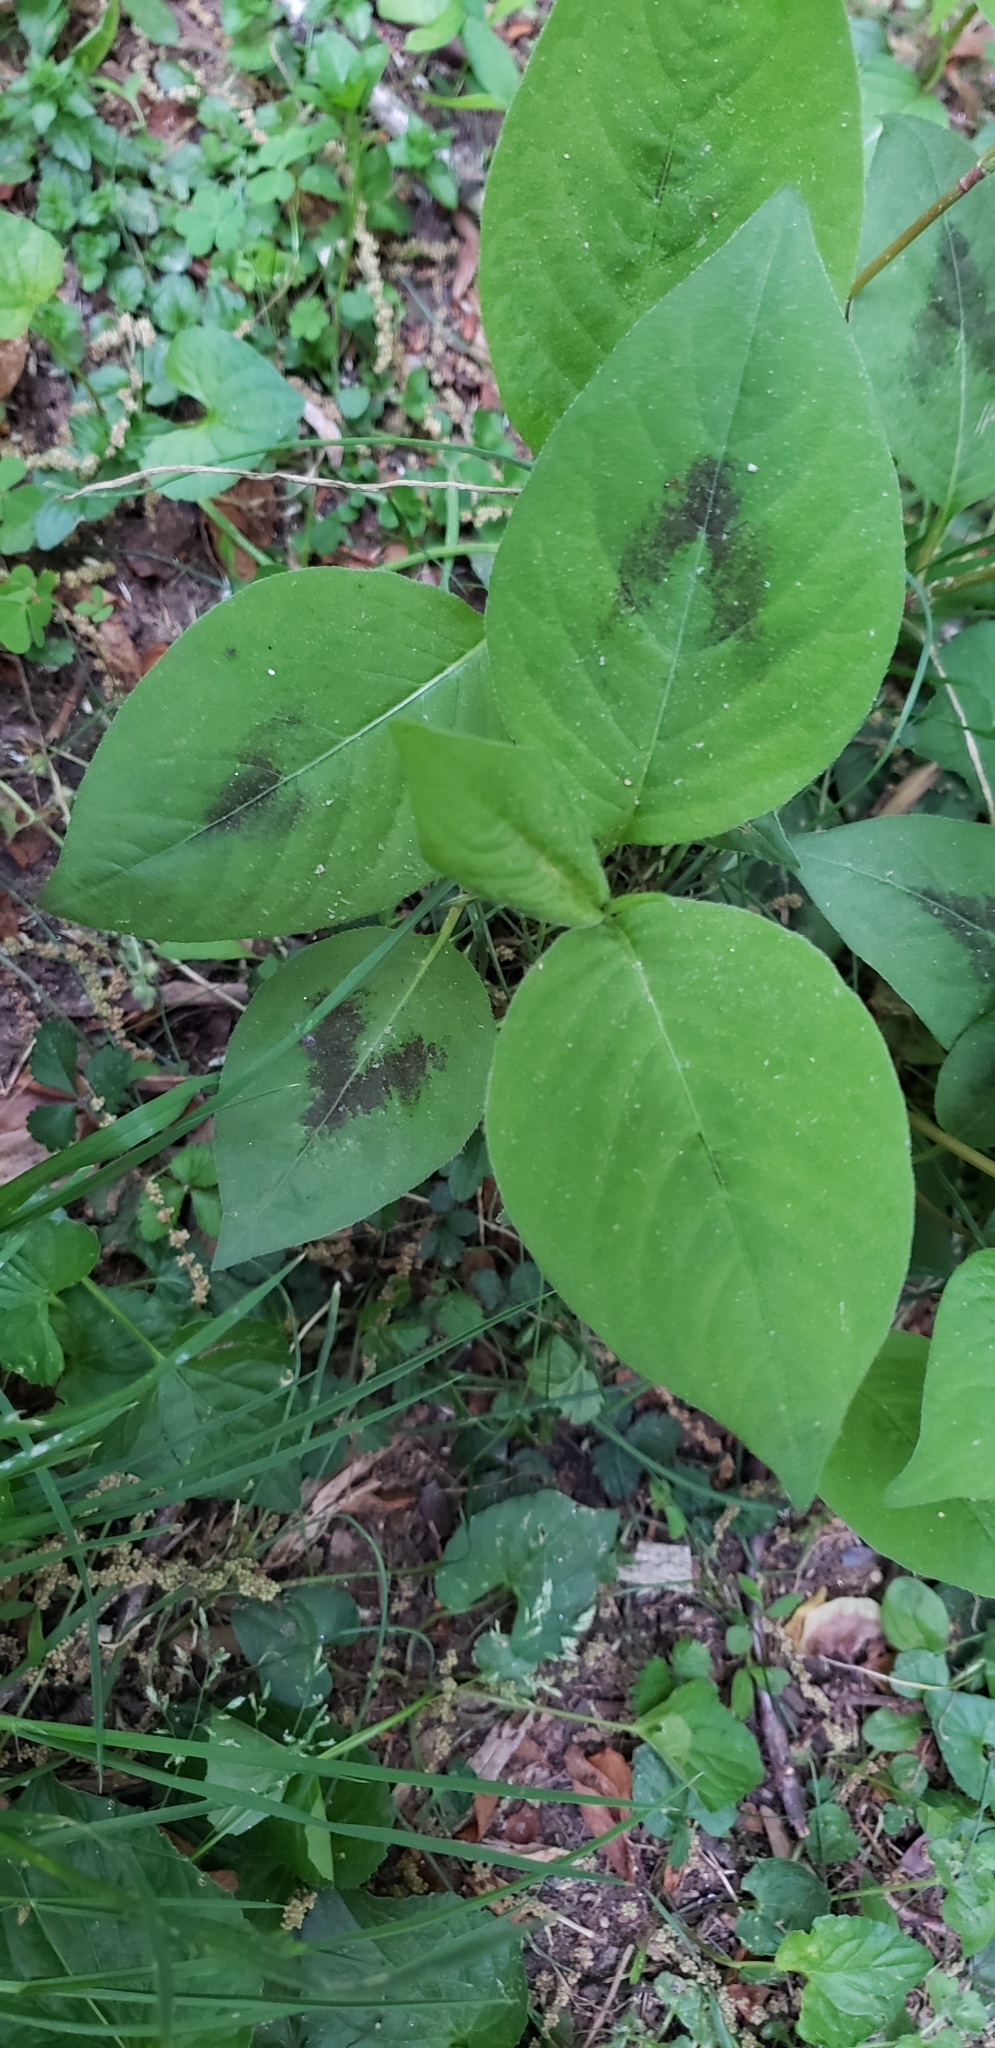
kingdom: Plantae
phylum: Tracheophyta
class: Magnoliopsida
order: Caryophyllales
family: Polygonaceae
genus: Persicaria
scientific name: Persicaria virginiana
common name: Jumpseed
